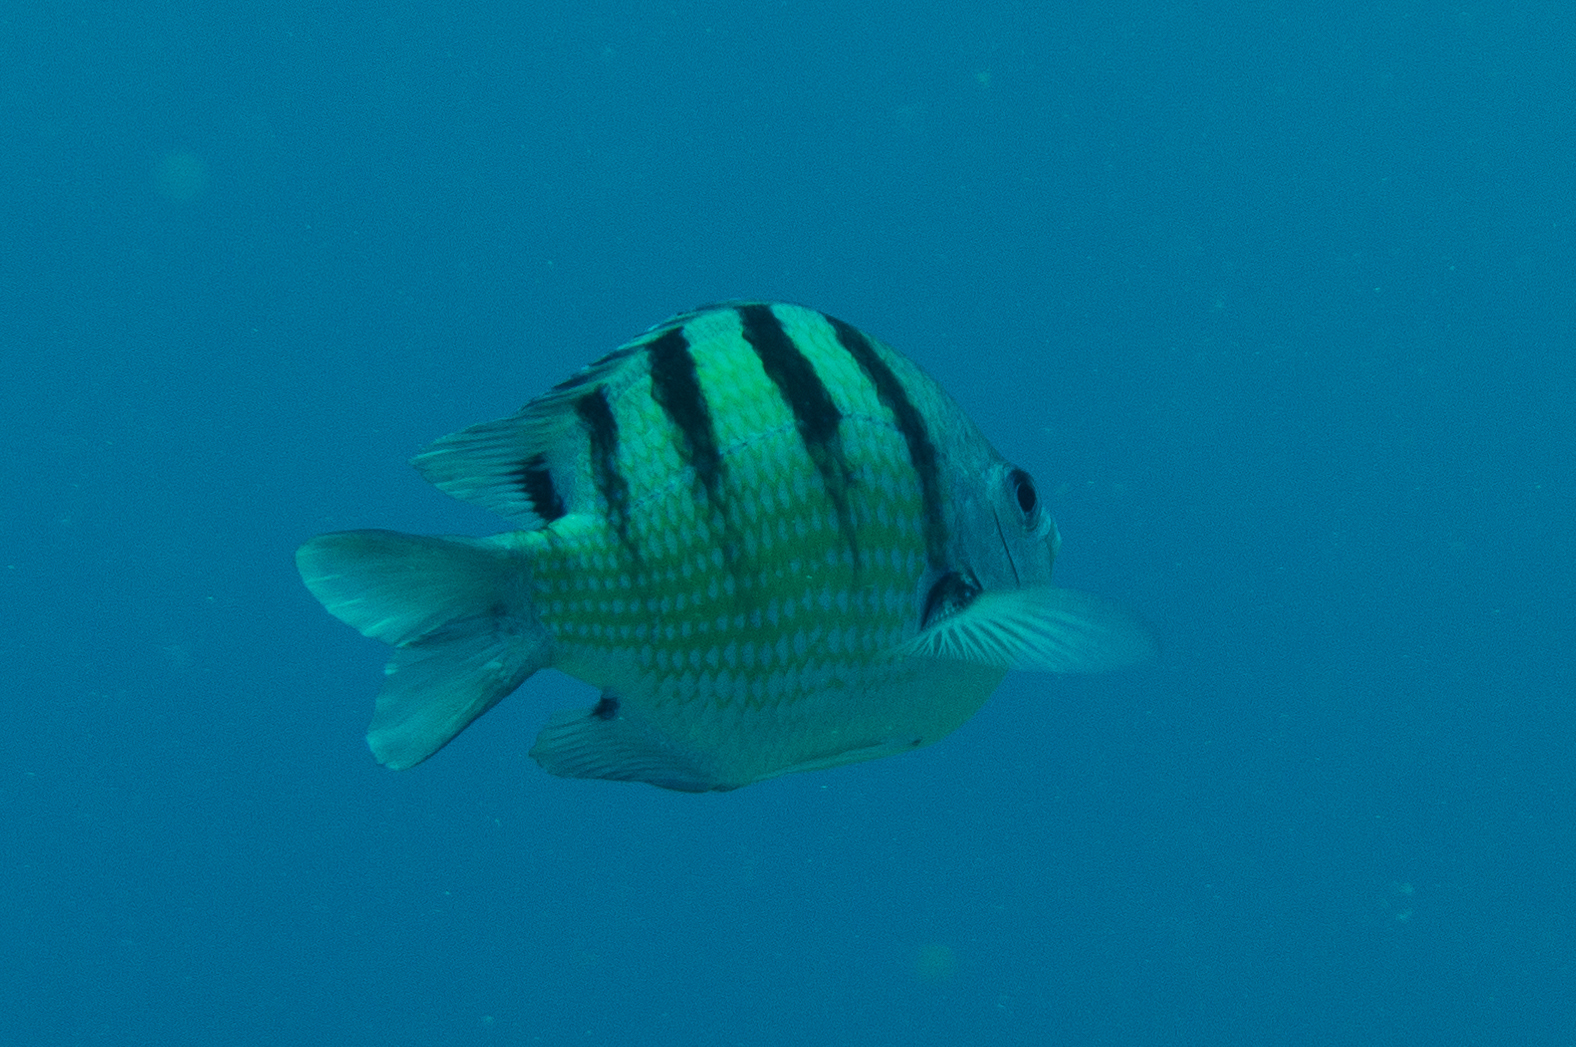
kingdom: Animalia
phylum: Chordata
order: Perciformes
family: Pomacentridae
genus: Abudefduf
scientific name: Abudefduf abdominalis
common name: Green damselfish
